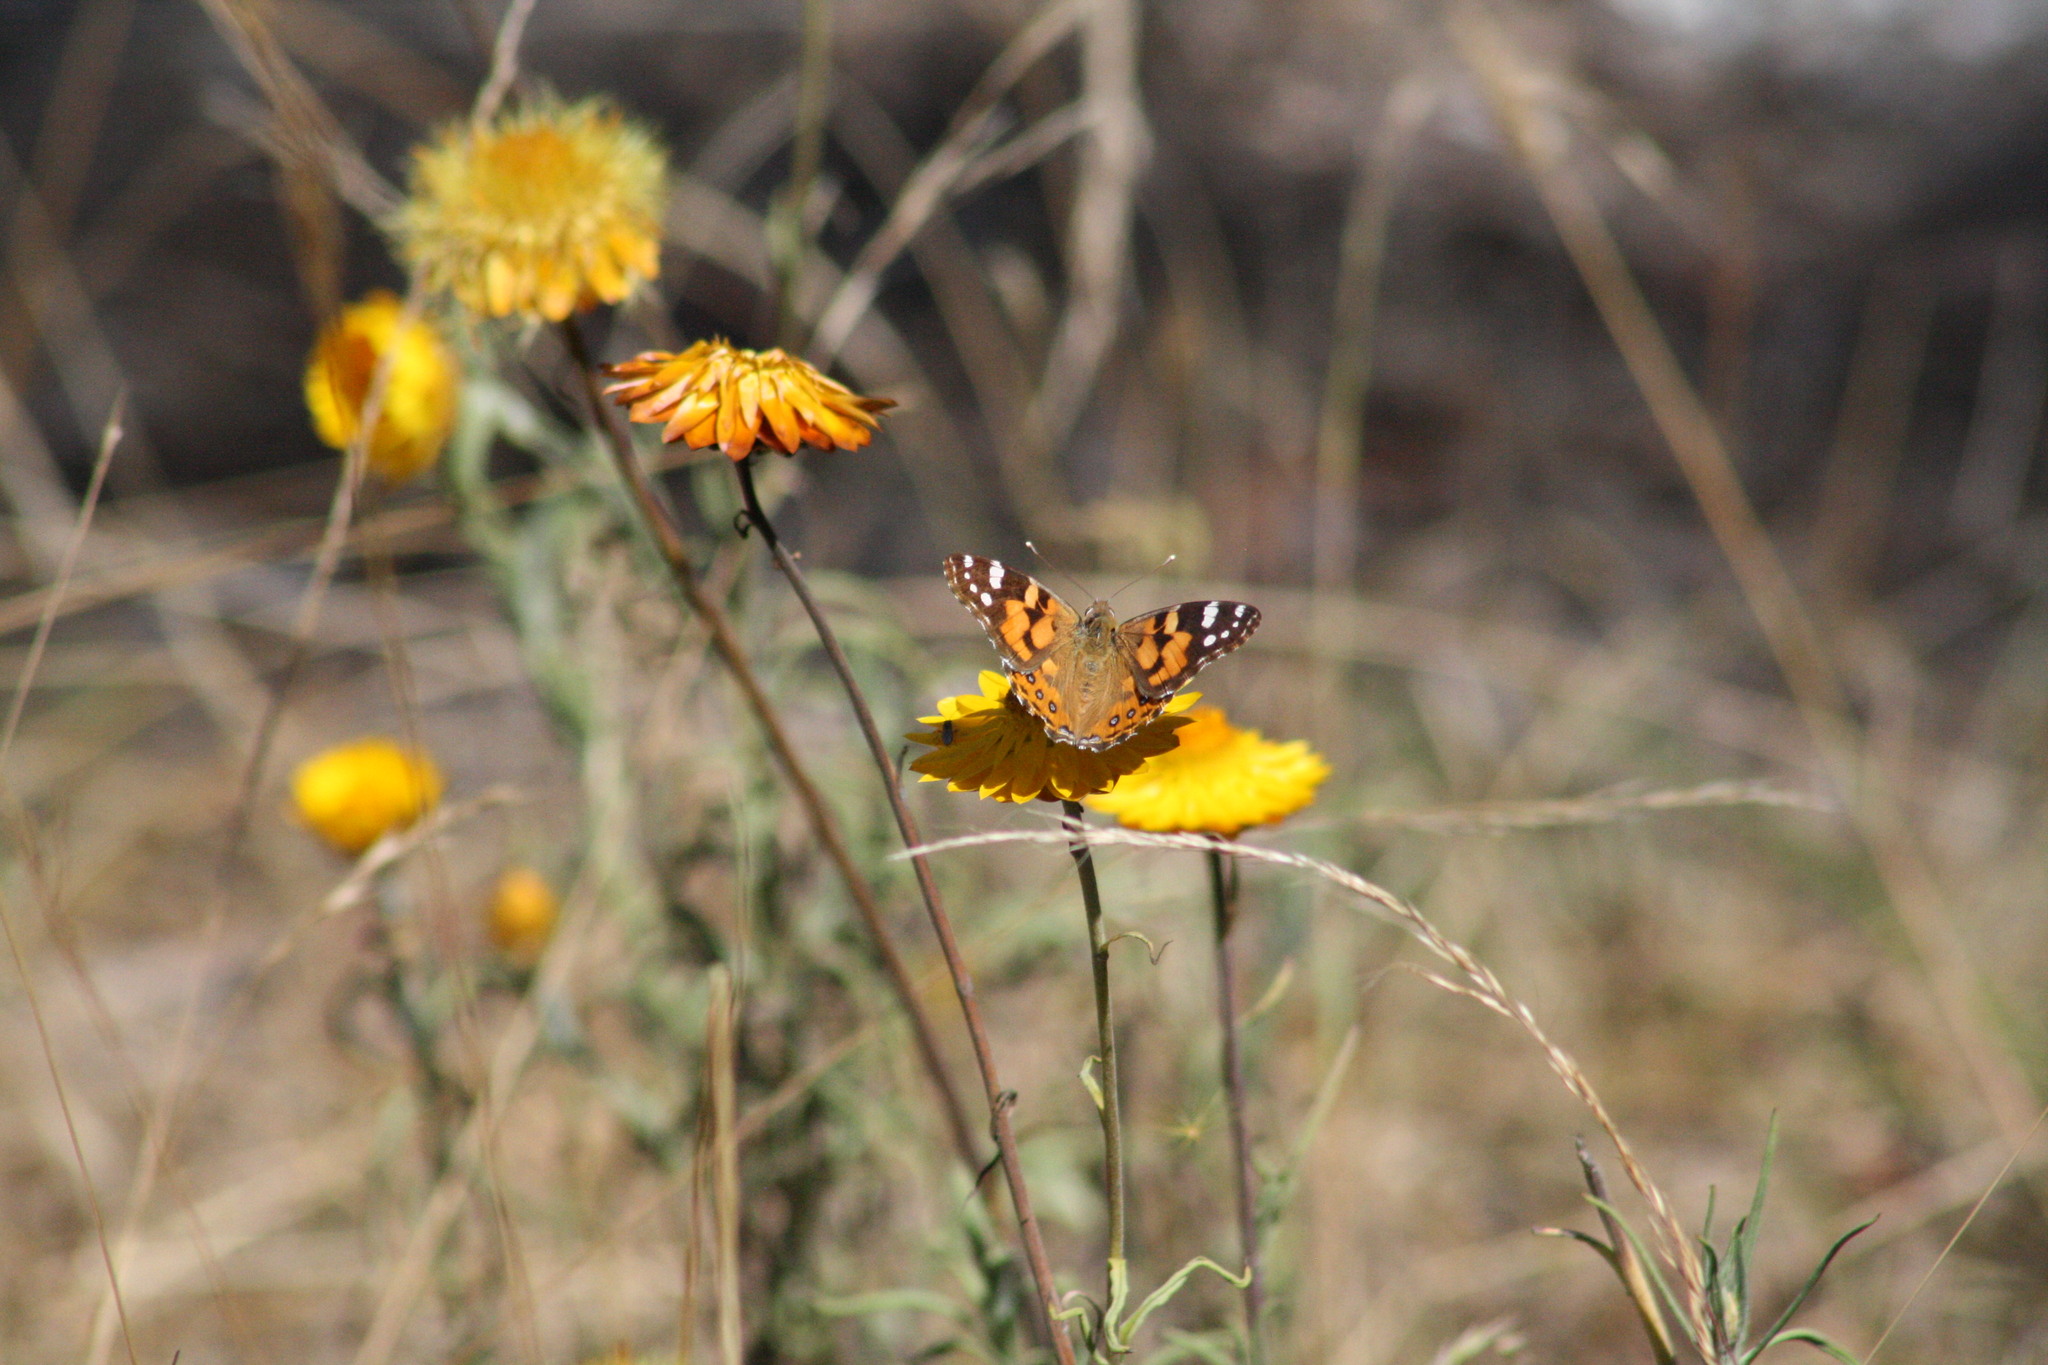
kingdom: Animalia
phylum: Arthropoda
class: Insecta
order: Lepidoptera
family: Nymphalidae
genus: Vanessa
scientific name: Vanessa kershawi
